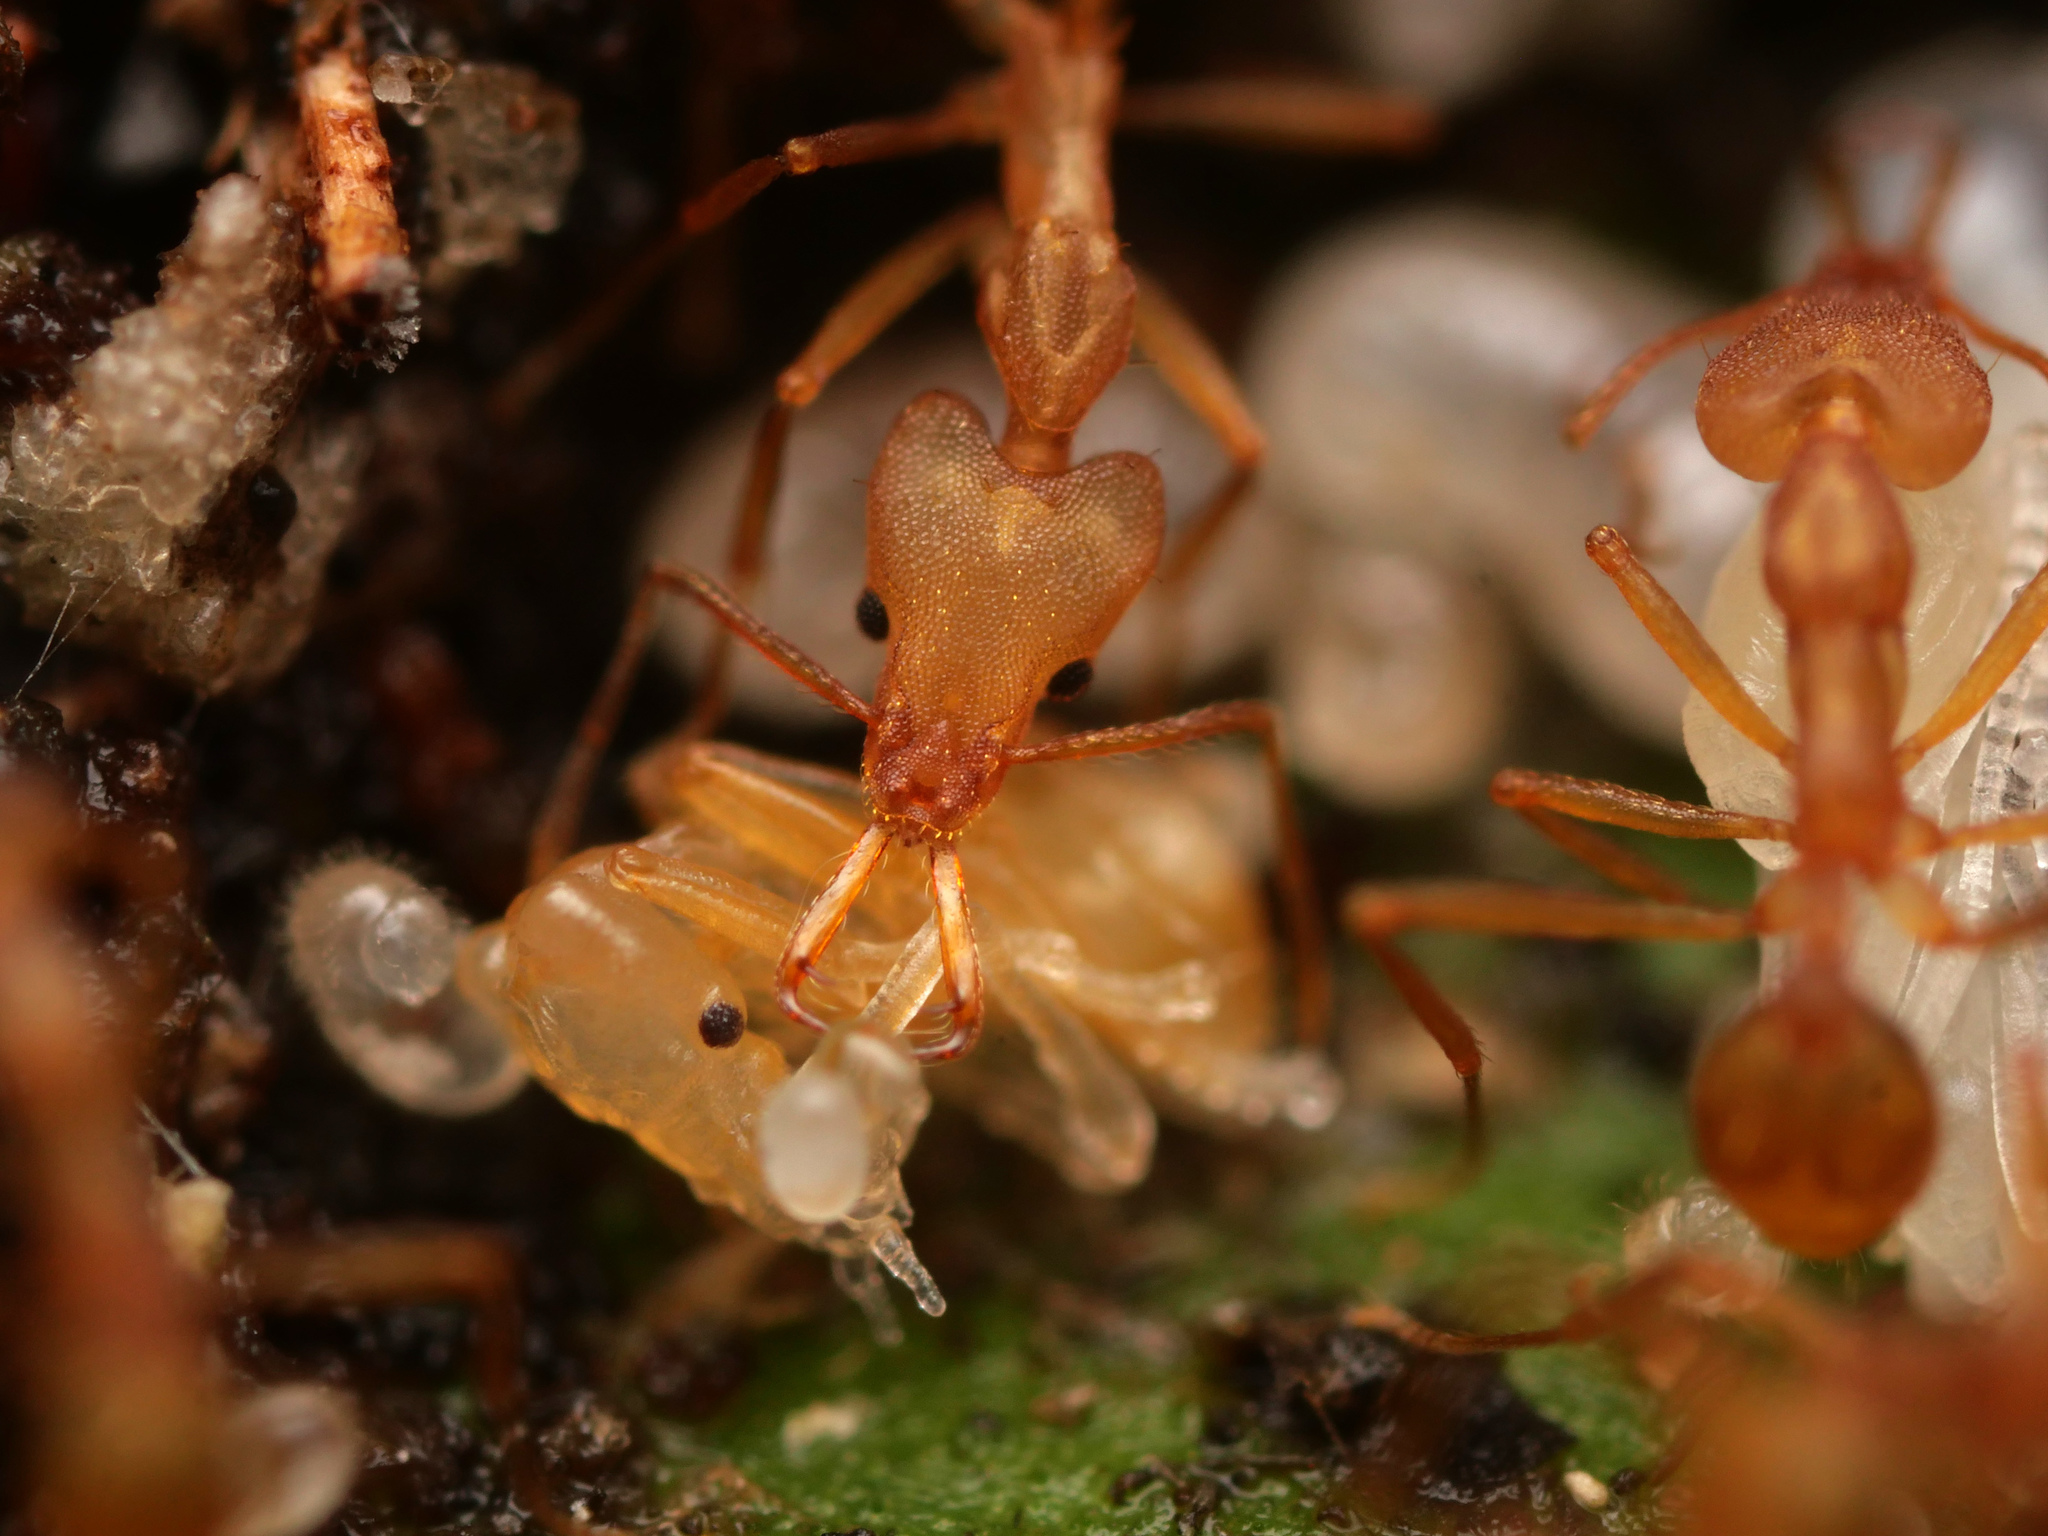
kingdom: Animalia
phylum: Arthropoda
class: Insecta
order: Hymenoptera
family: Formicidae
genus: Strumigenys
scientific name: Strumigenys szalayi
